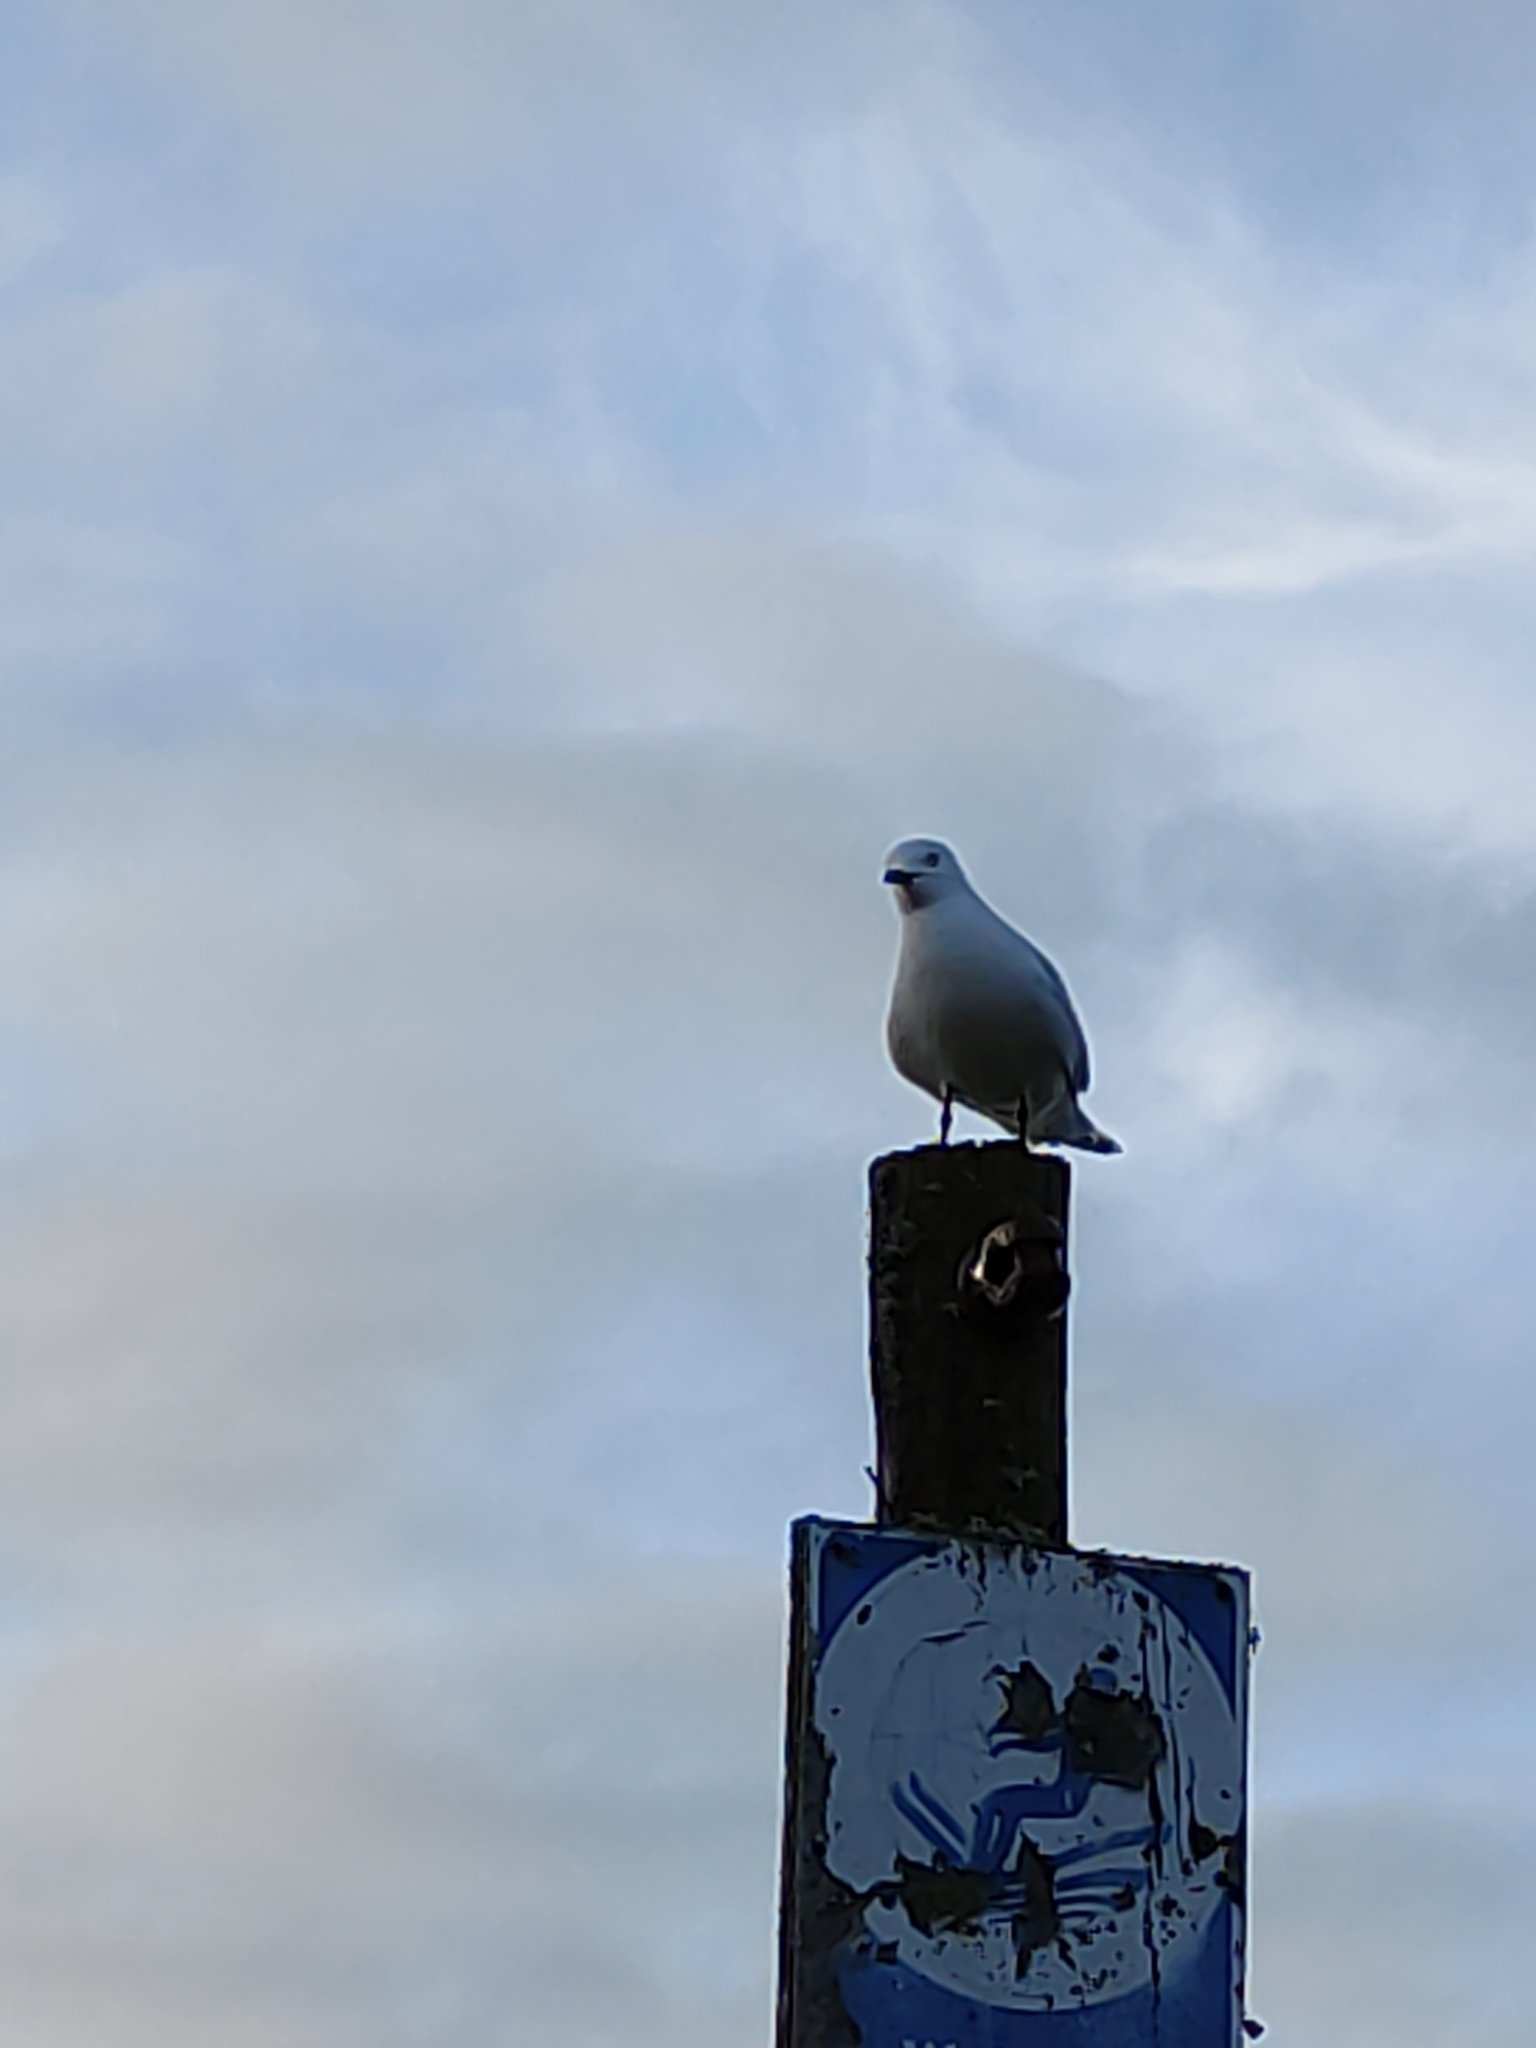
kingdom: Animalia
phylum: Chordata
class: Aves
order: Charadriiformes
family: Laridae
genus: Chroicocephalus
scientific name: Chroicocephalus bulleri
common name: Black-billed gull
